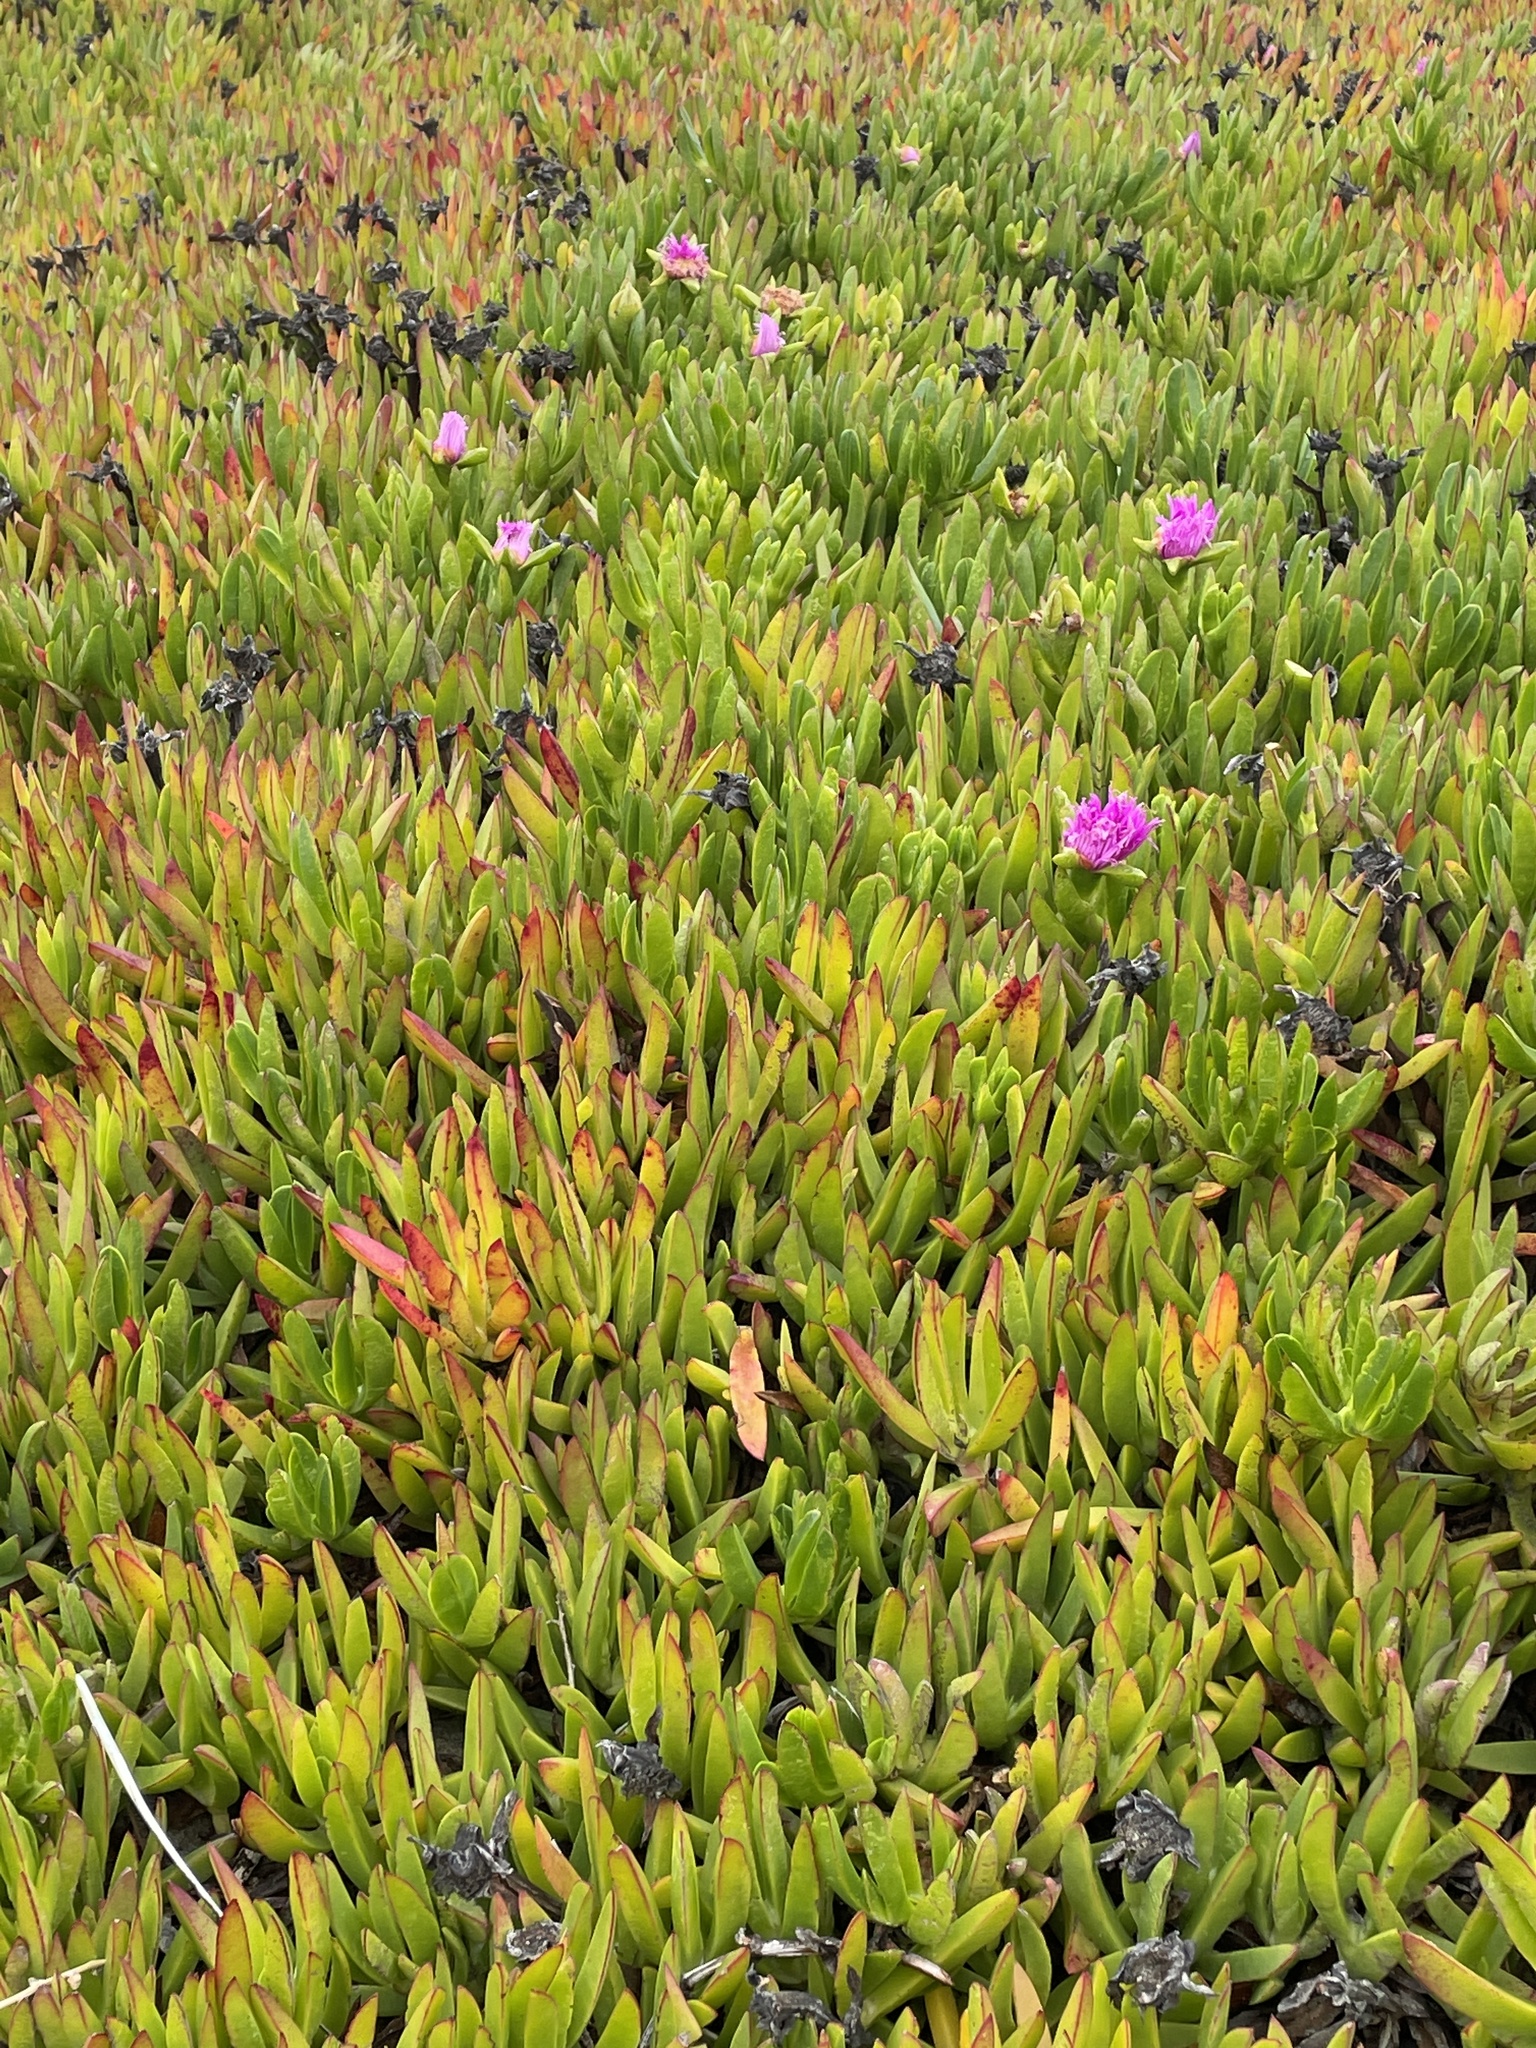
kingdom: Plantae
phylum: Tracheophyta
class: Magnoliopsida
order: Caryophyllales
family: Aizoaceae
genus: Carpobrotus
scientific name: Carpobrotus chilensis
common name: Sea fig
